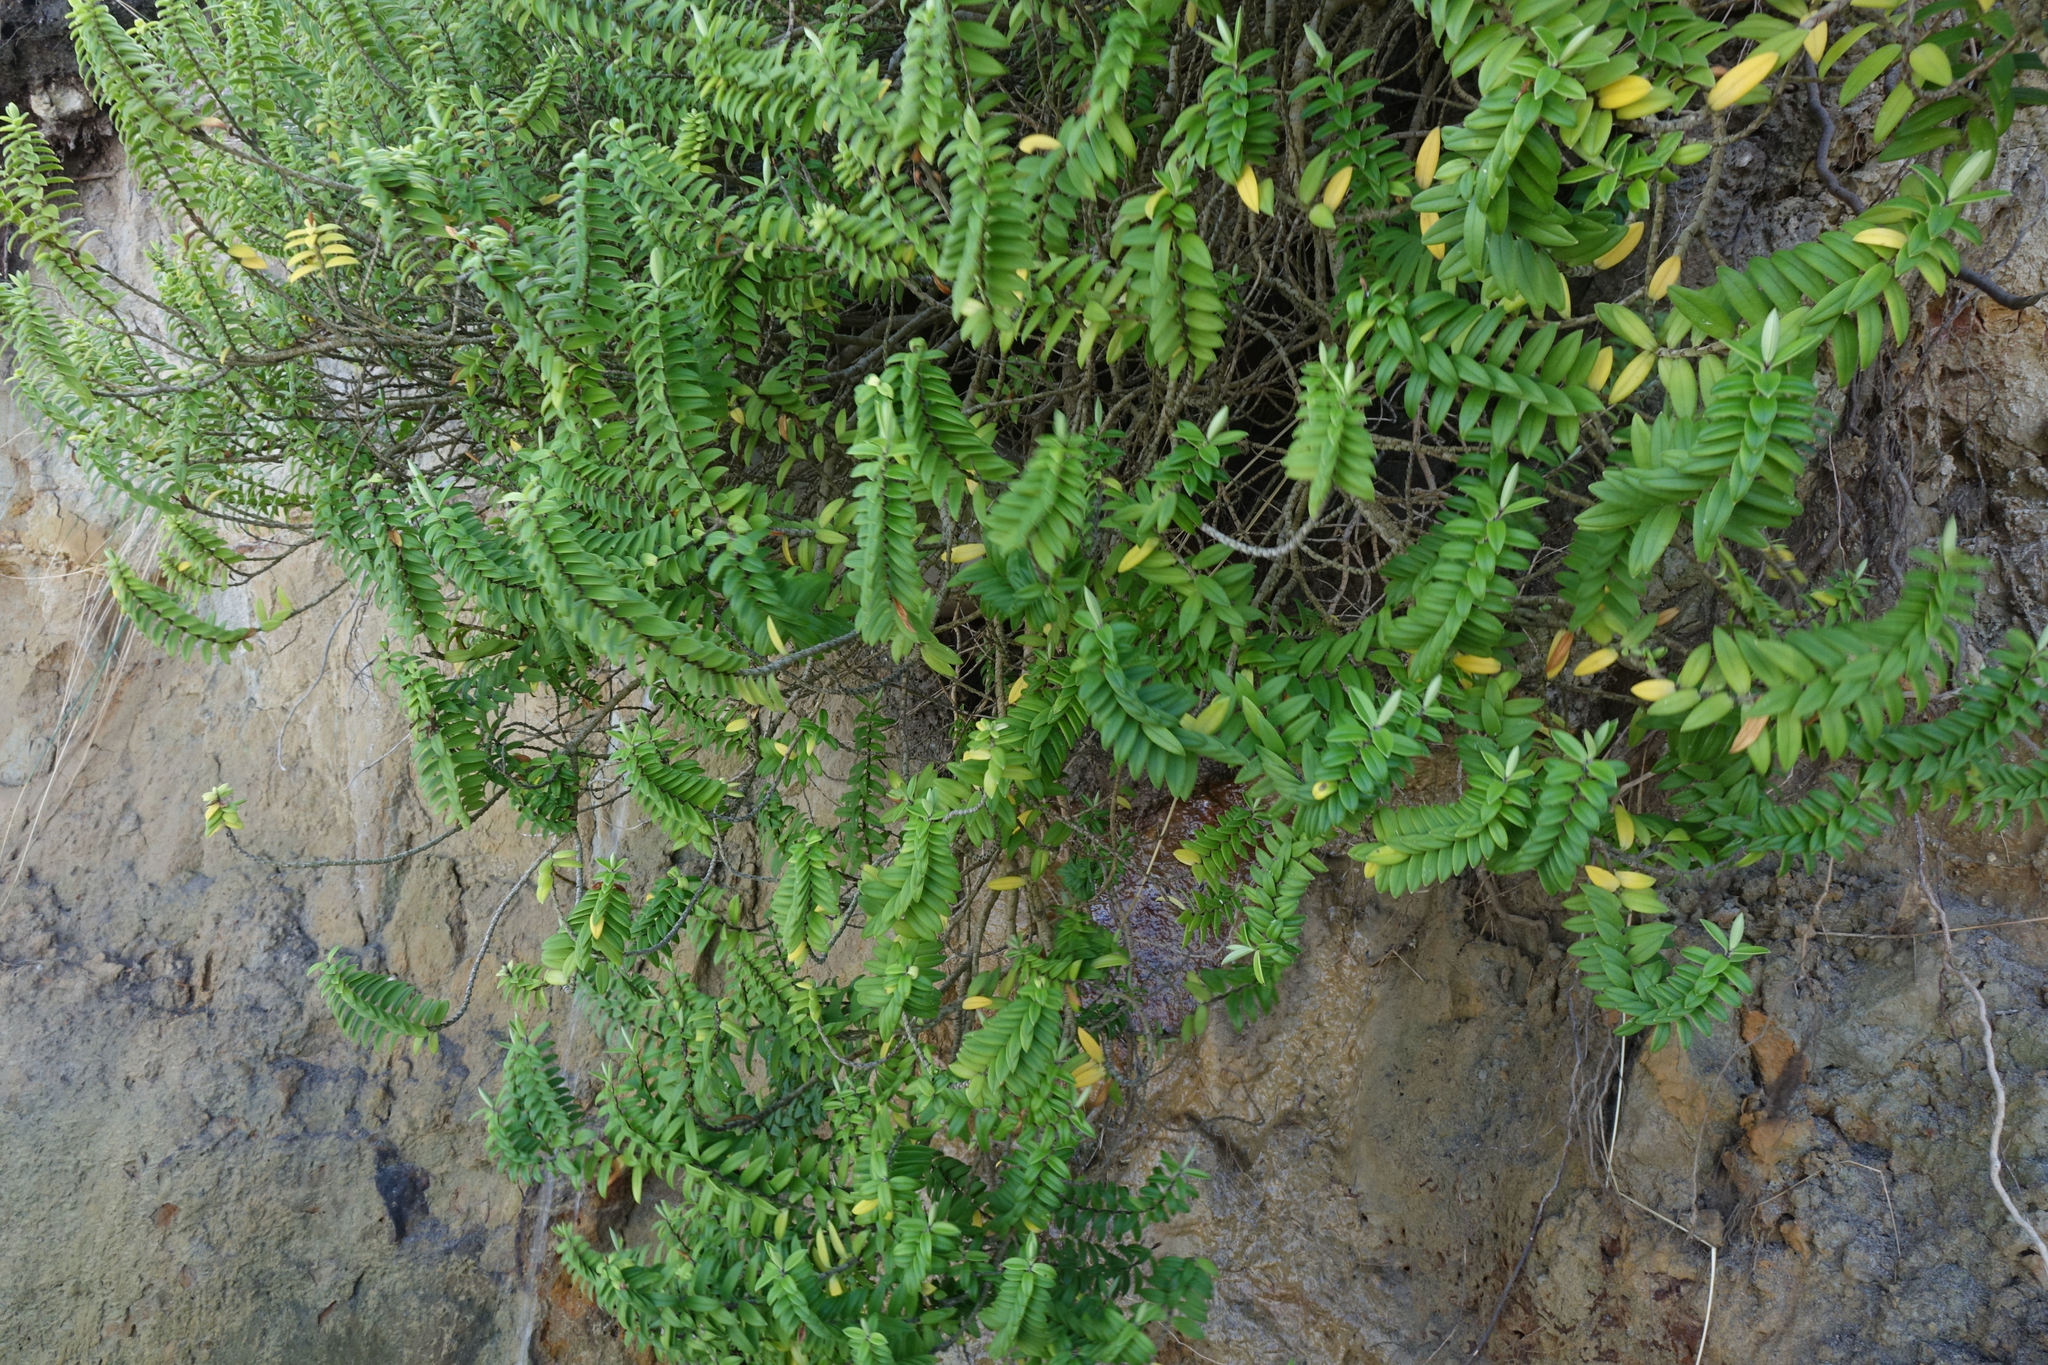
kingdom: Plantae
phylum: Tracheophyta
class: Magnoliopsida
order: Lamiales
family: Plantaginaceae
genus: Veronica
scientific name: Veronica elliptica
